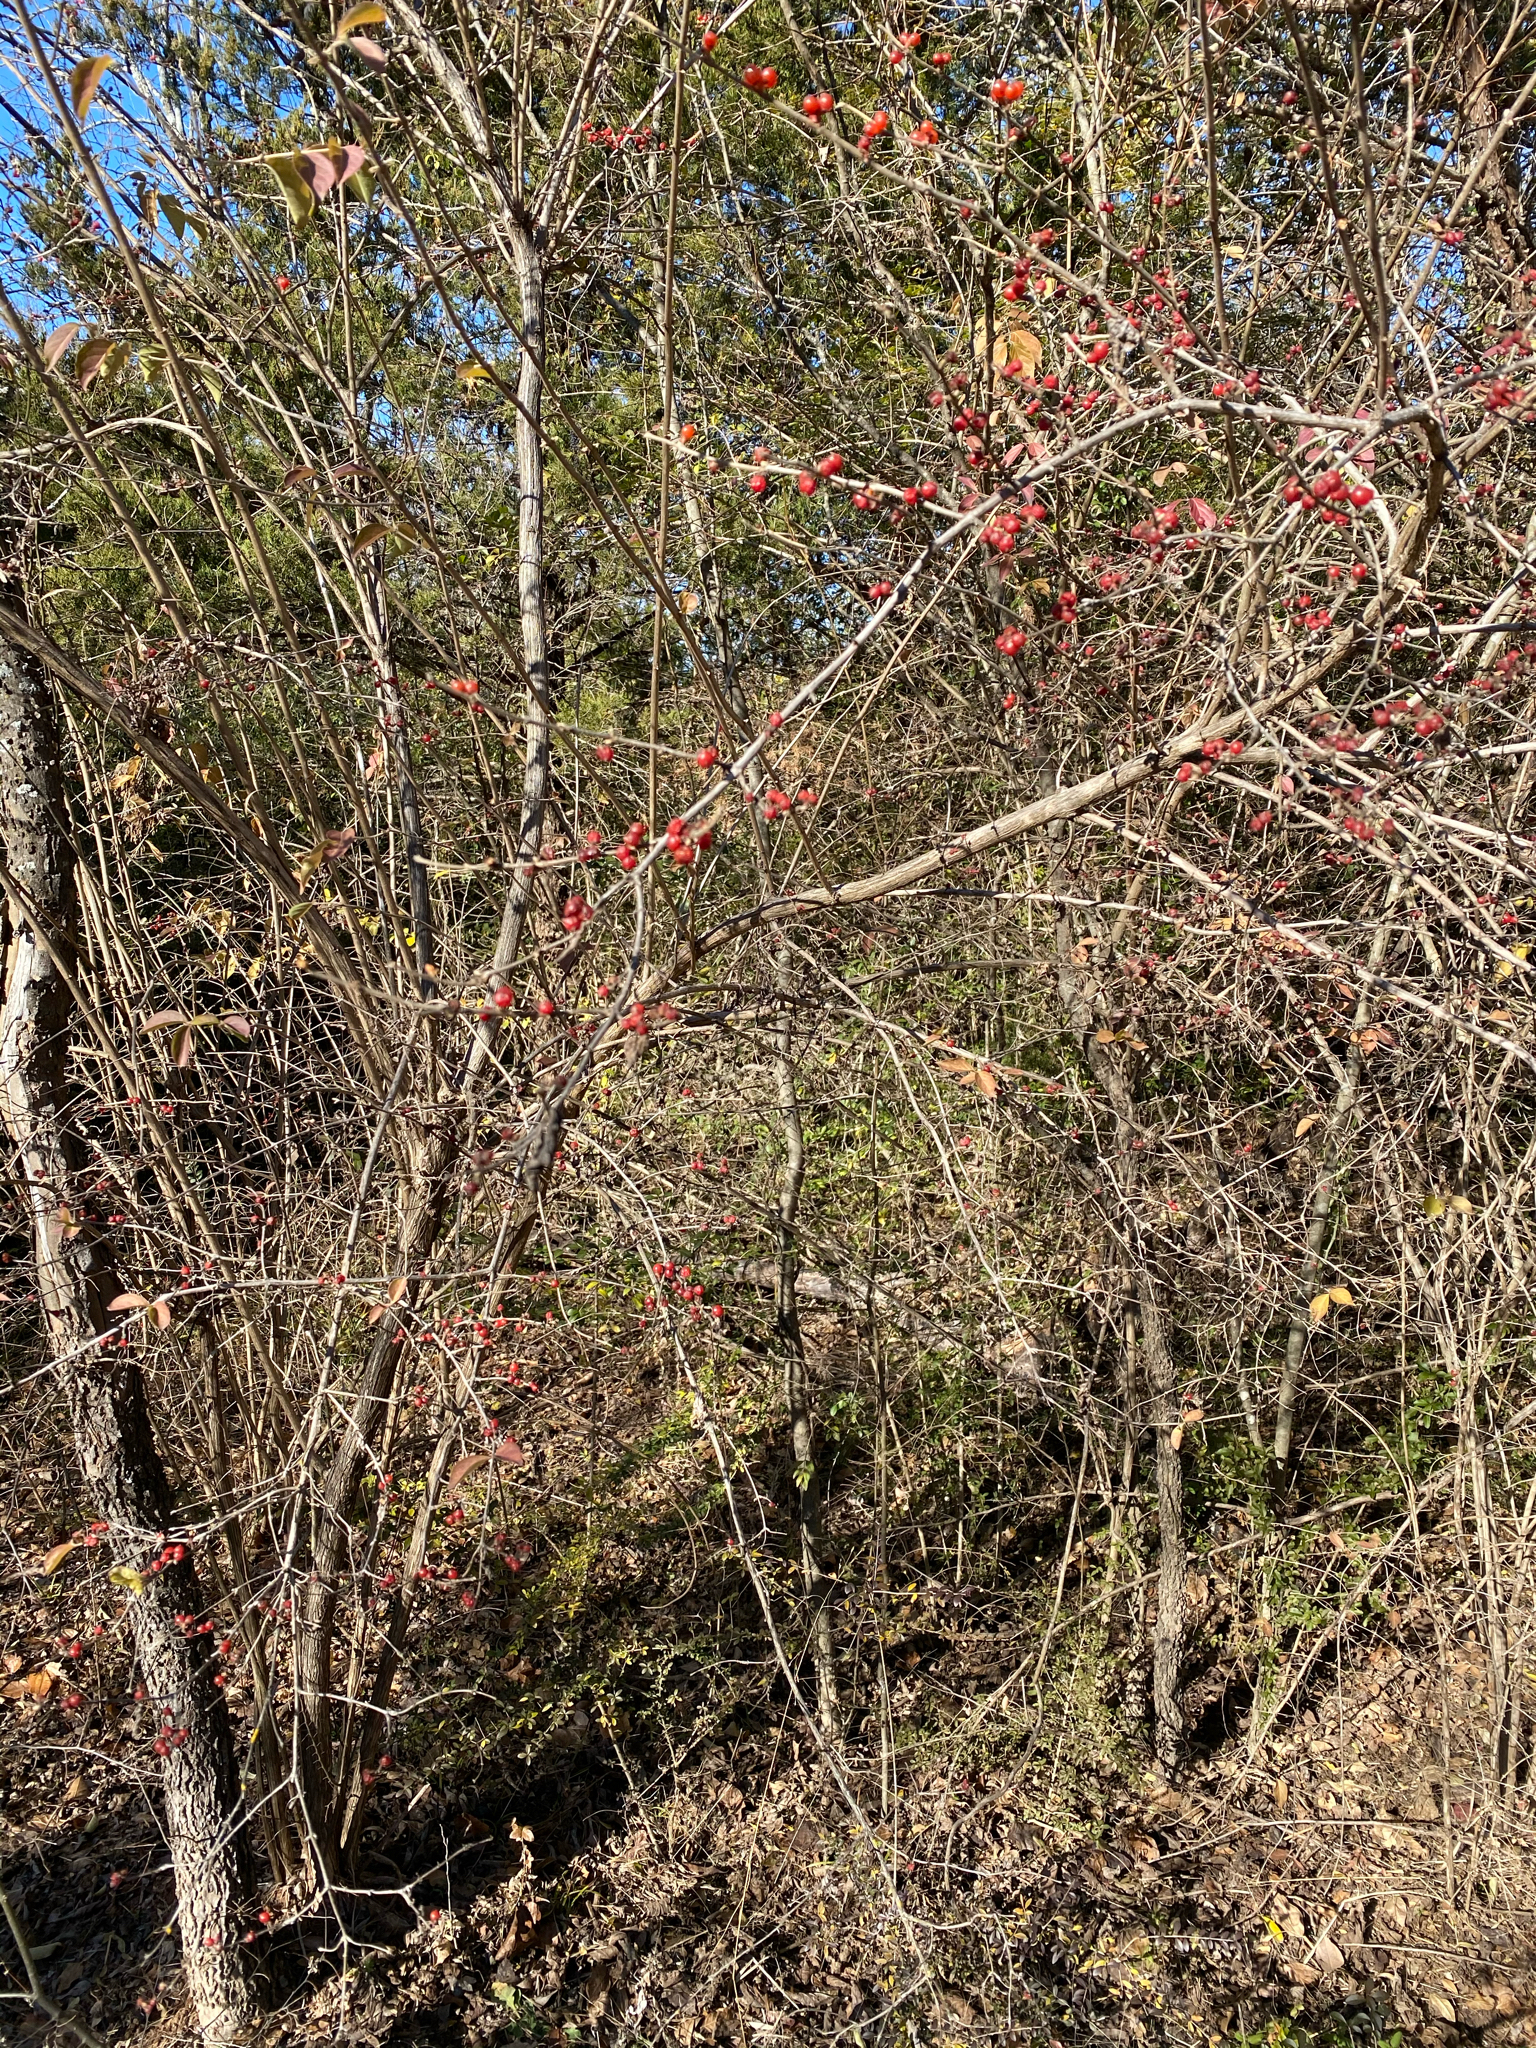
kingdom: Plantae
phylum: Tracheophyta
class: Magnoliopsida
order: Dipsacales
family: Caprifoliaceae
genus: Lonicera
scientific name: Lonicera maackii
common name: Amur honeysuckle
